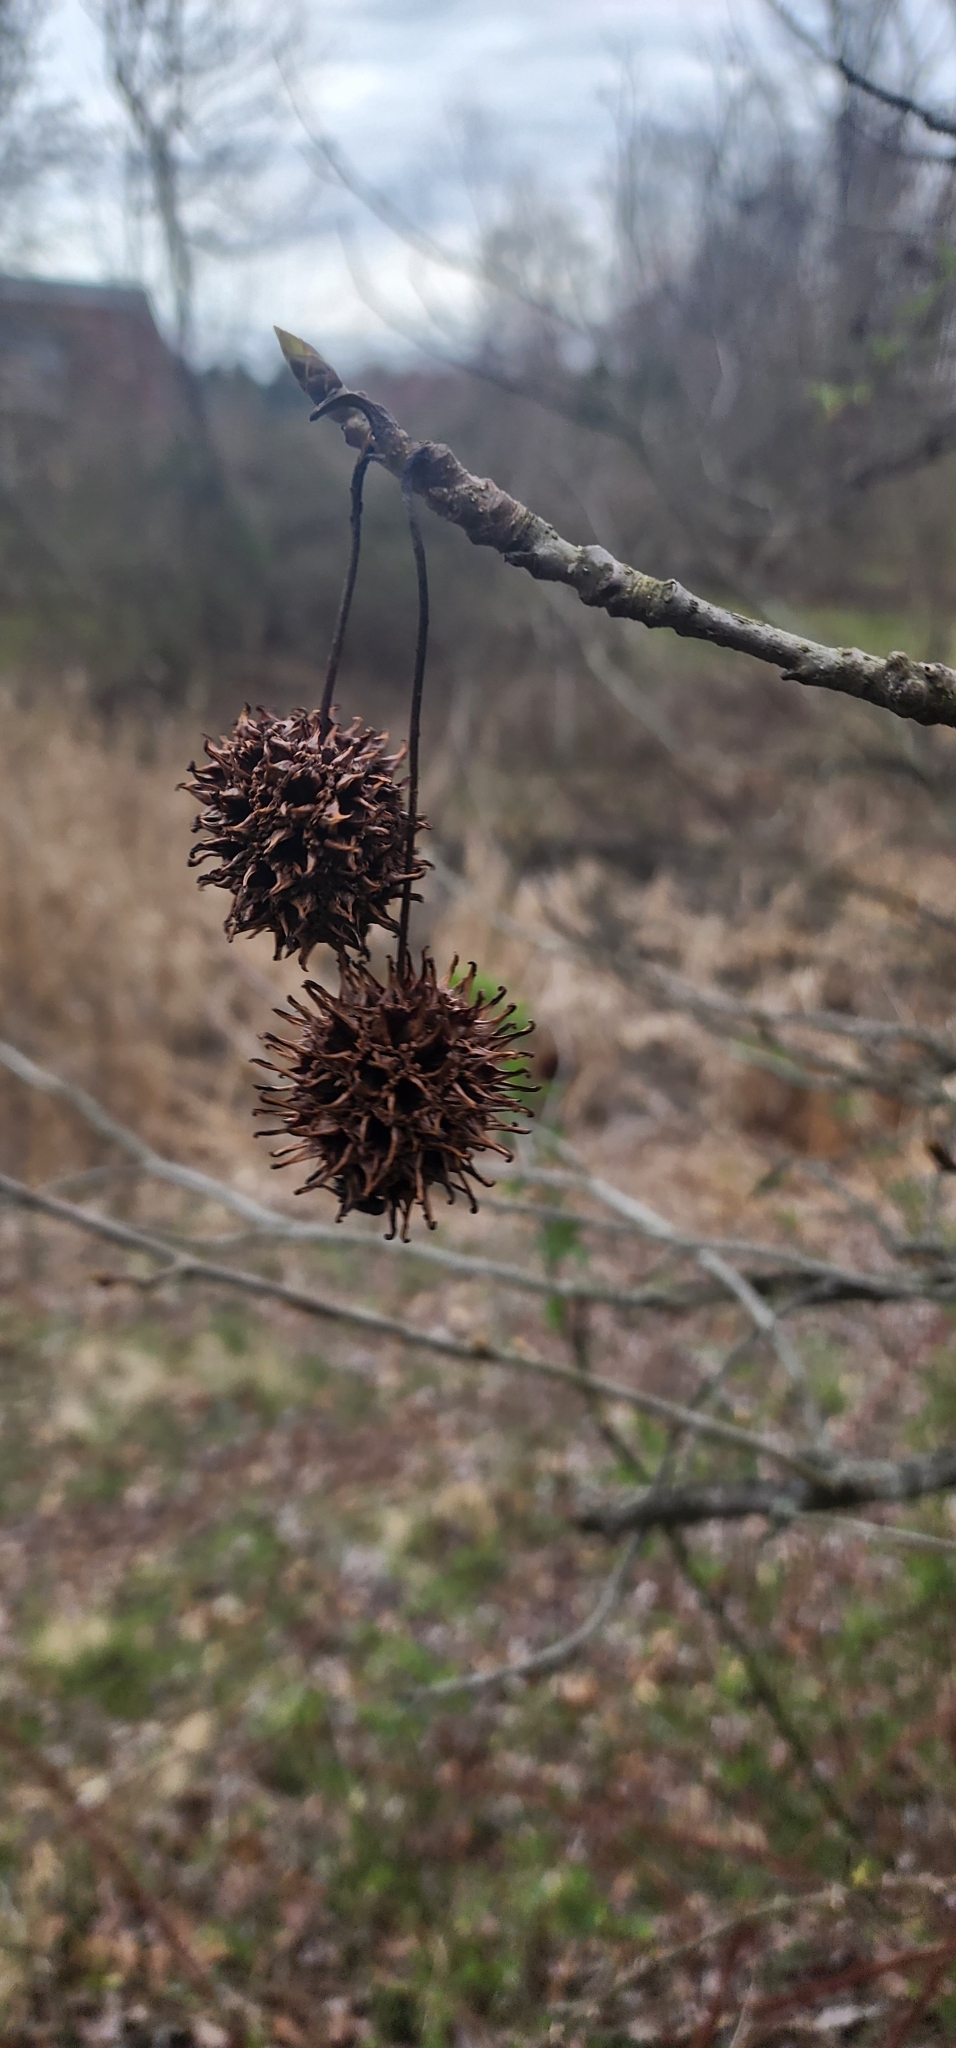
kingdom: Plantae
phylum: Tracheophyta
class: Magnoliopsida
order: Saxifragales
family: Altingiaceae
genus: Liquidambar
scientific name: Liquidambar styraciflua
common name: Sweet gum
